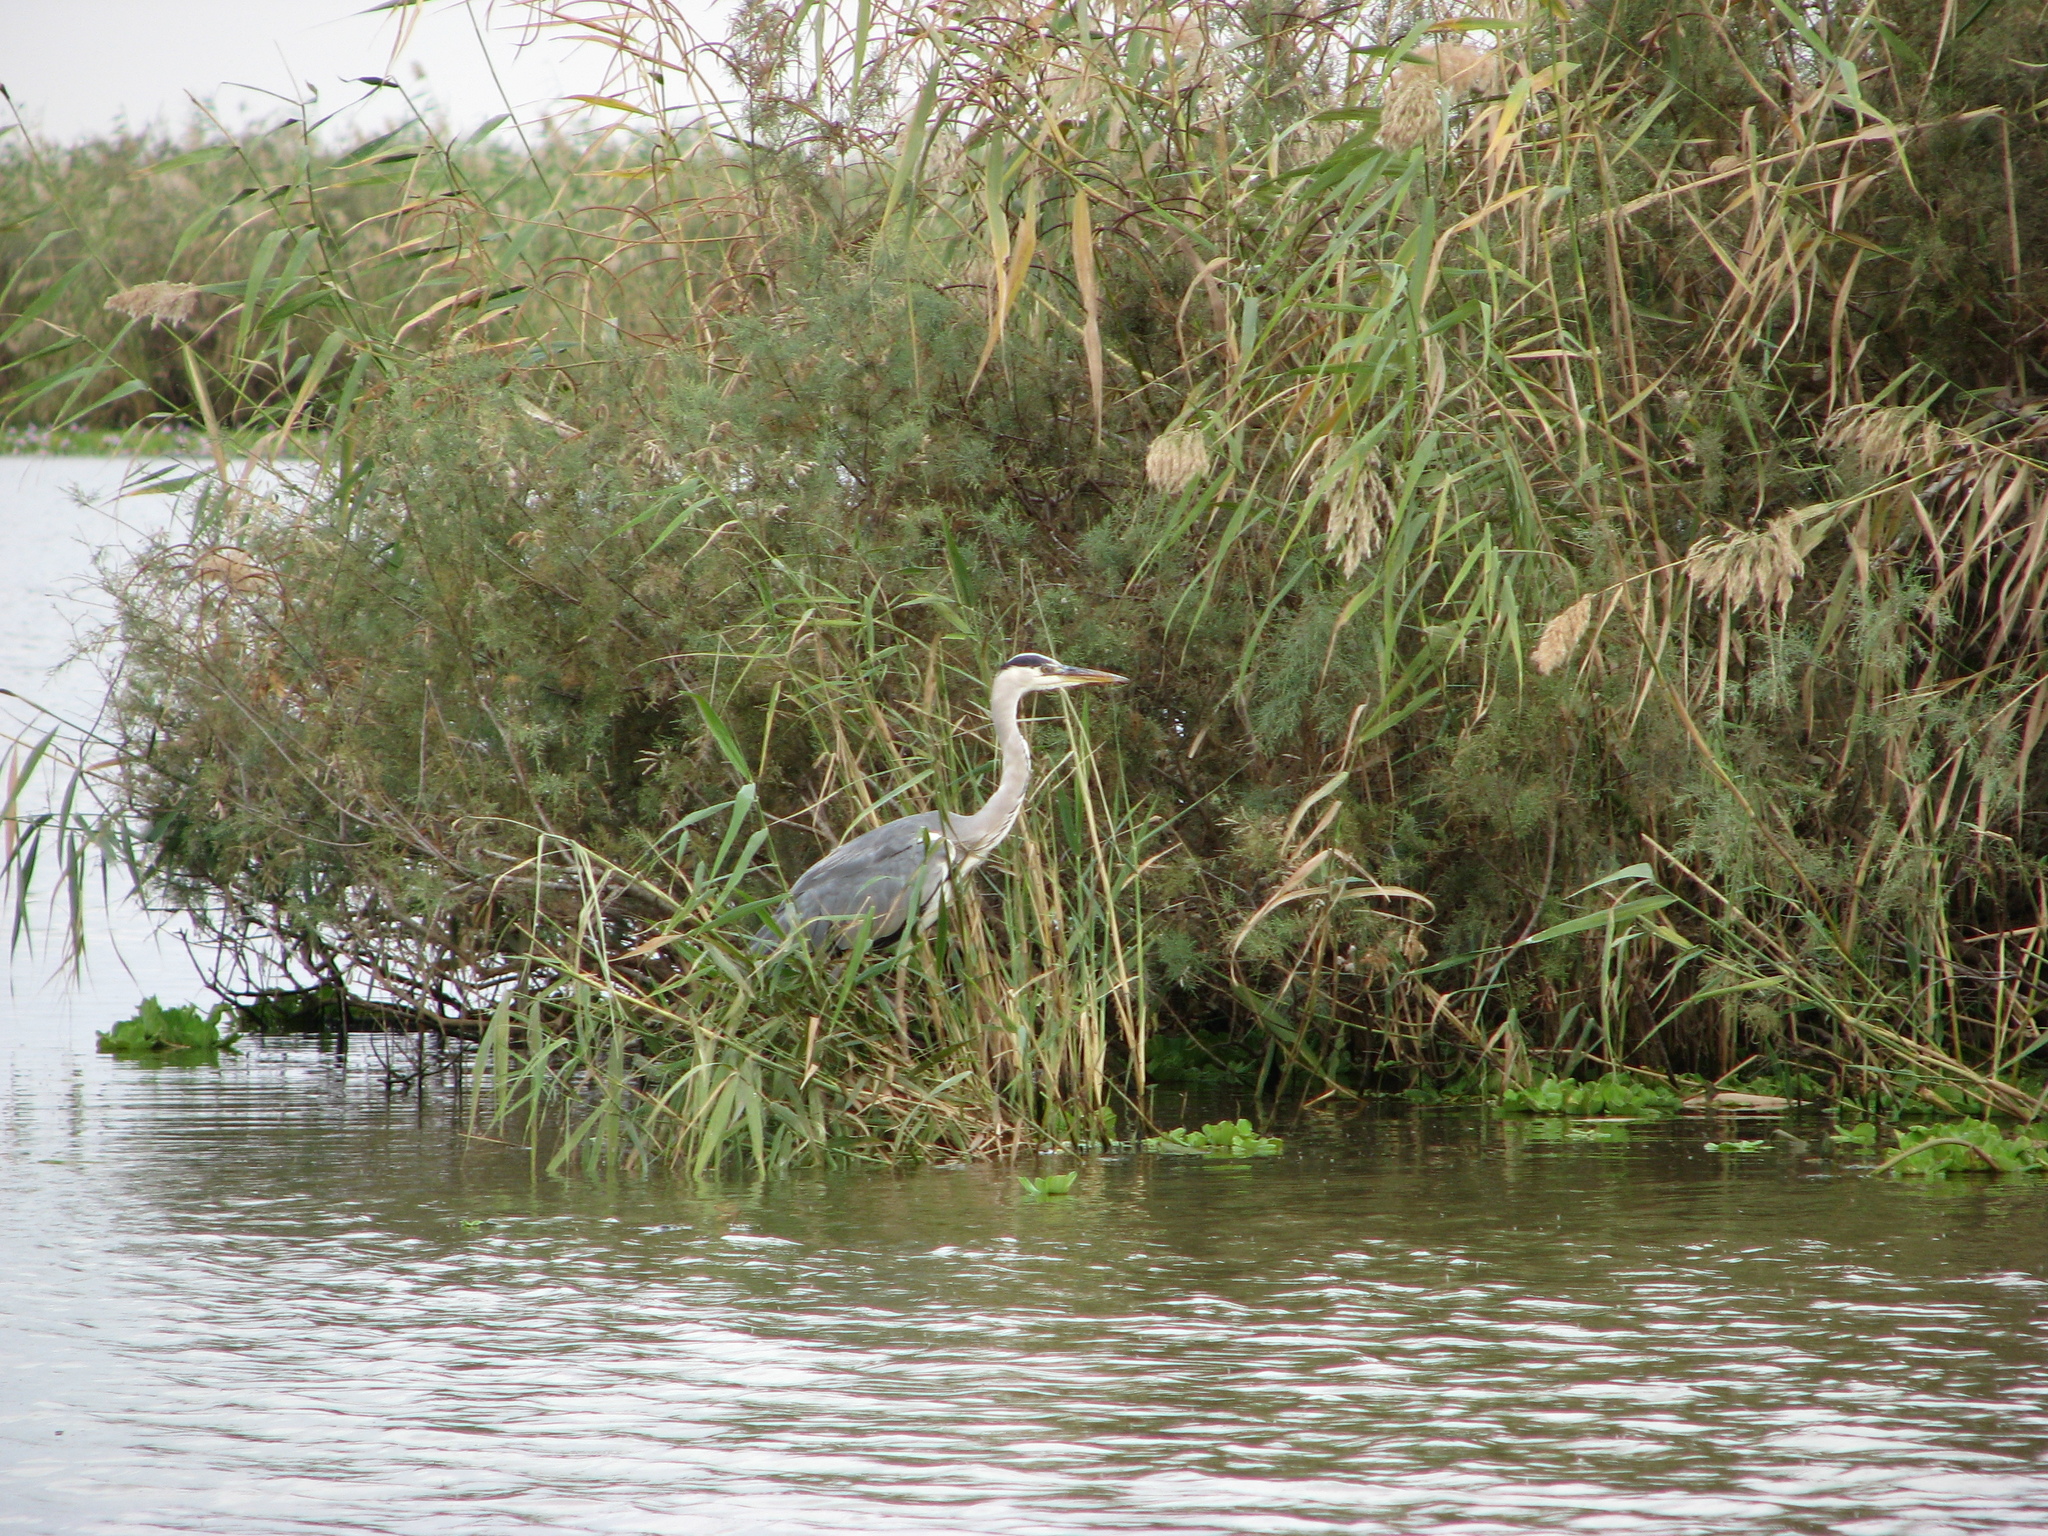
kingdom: Animalia
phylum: Chordata
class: Aves
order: Pelecaniformes
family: Ardeidae
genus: Ardea
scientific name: Ardea cinerea
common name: Grey heron
